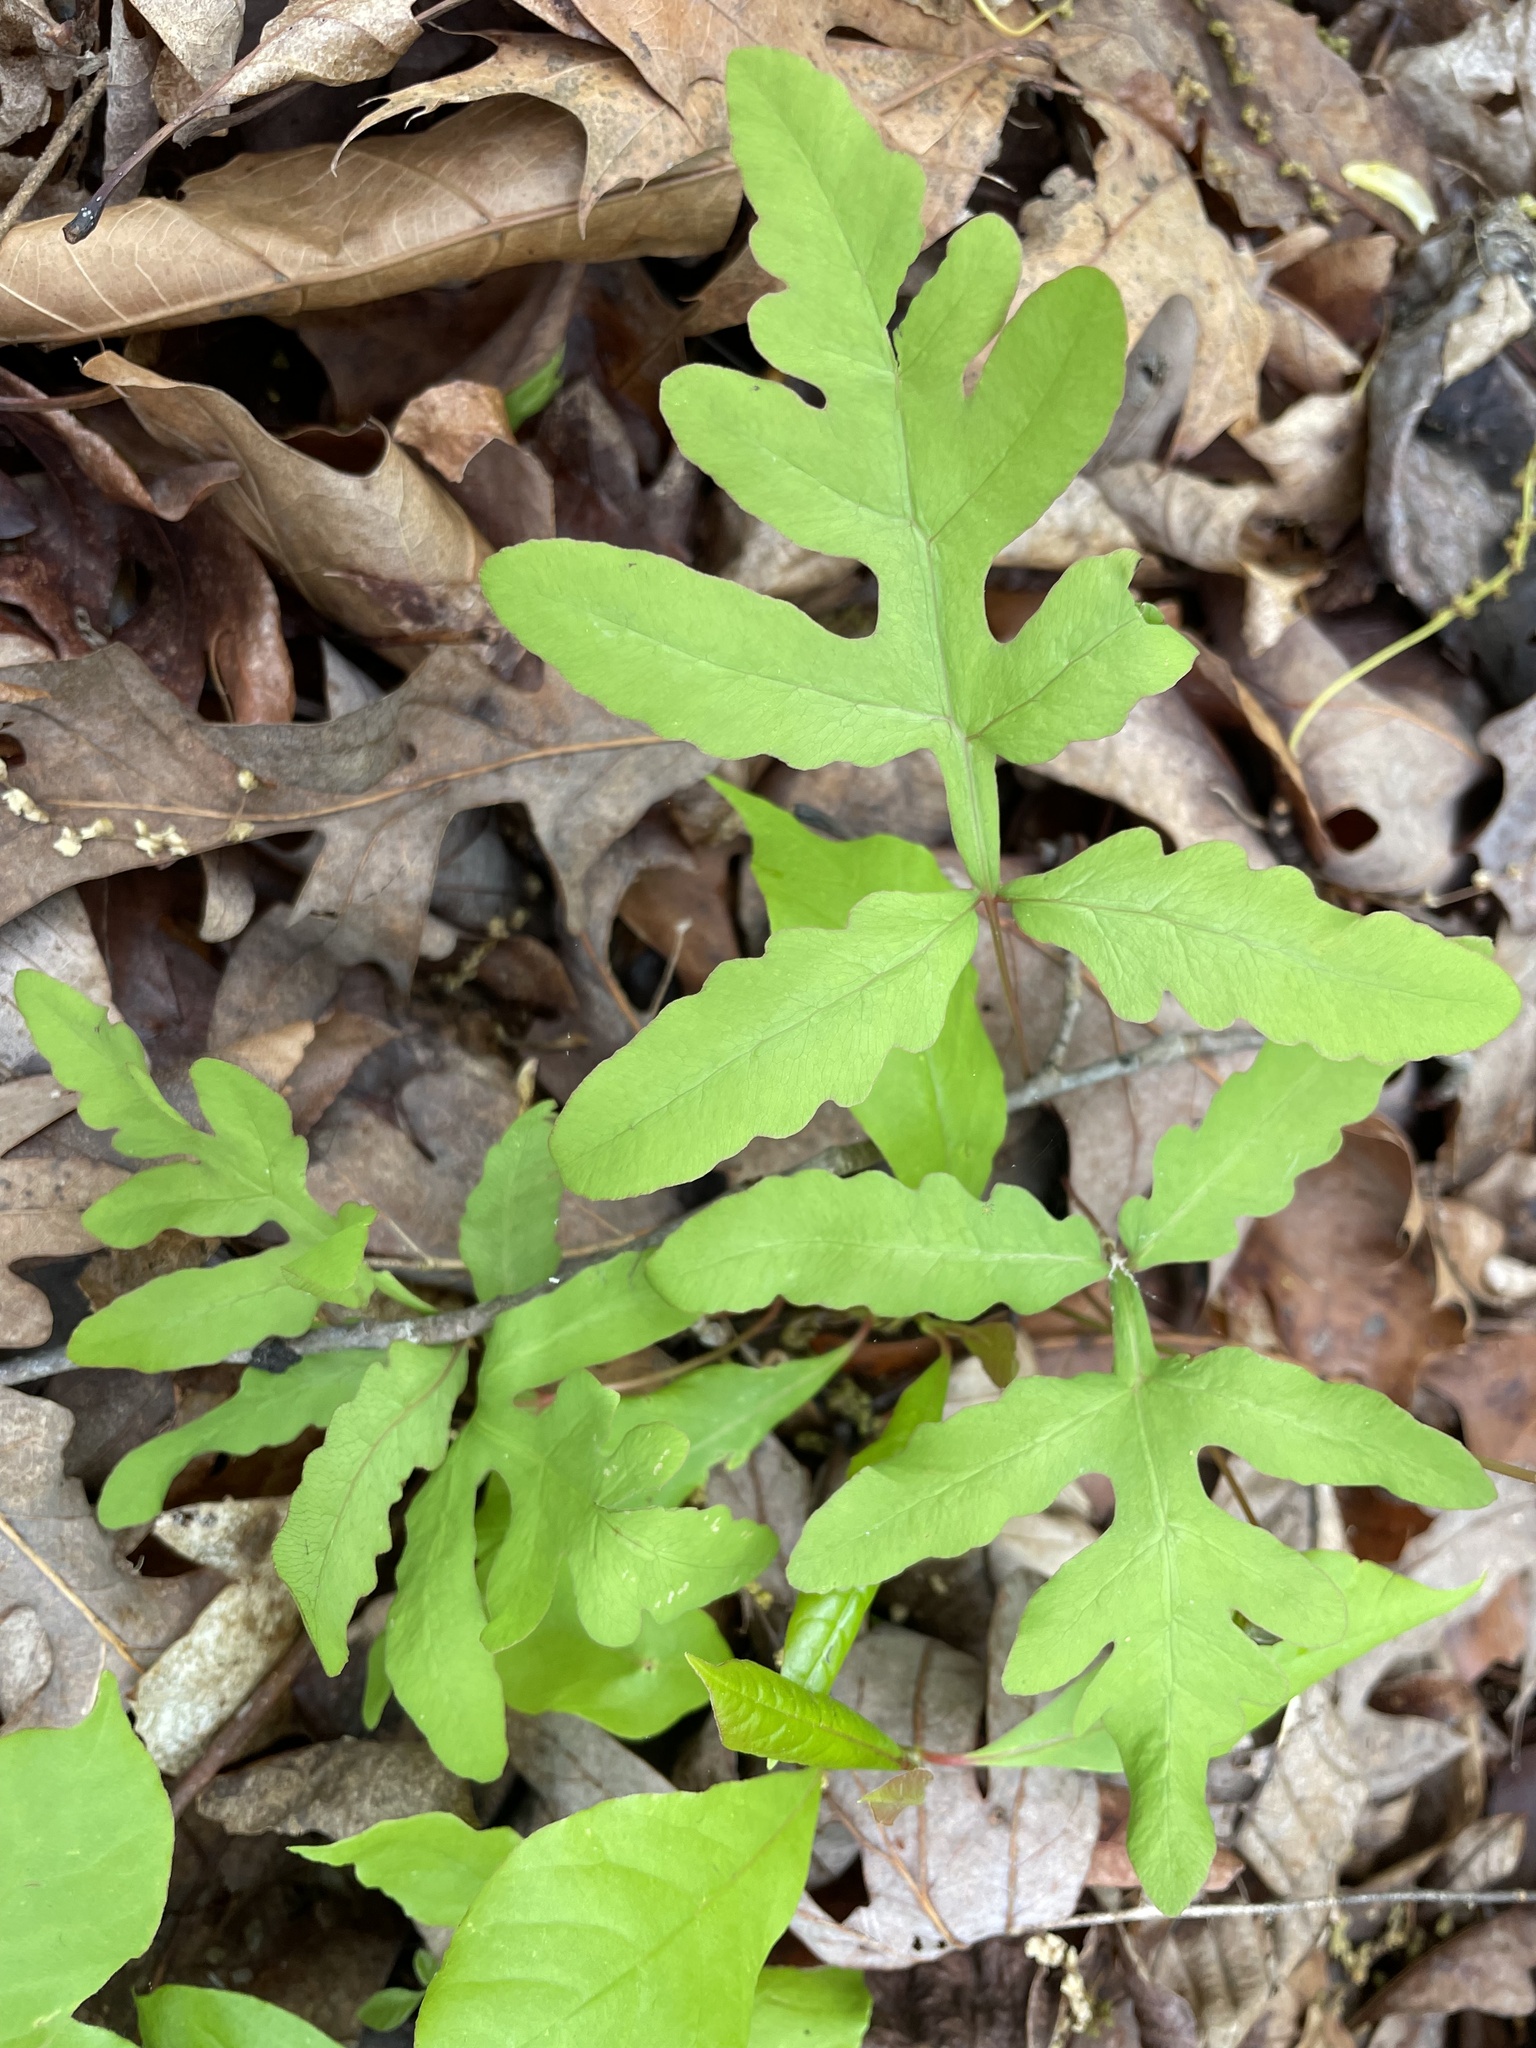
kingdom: Plantae
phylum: Tracheophyta
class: Polypodiopsida
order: Polypodiales
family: Onocleaceae
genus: Onoclea
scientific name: Onoclea sensibilis
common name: Sensitive fern
